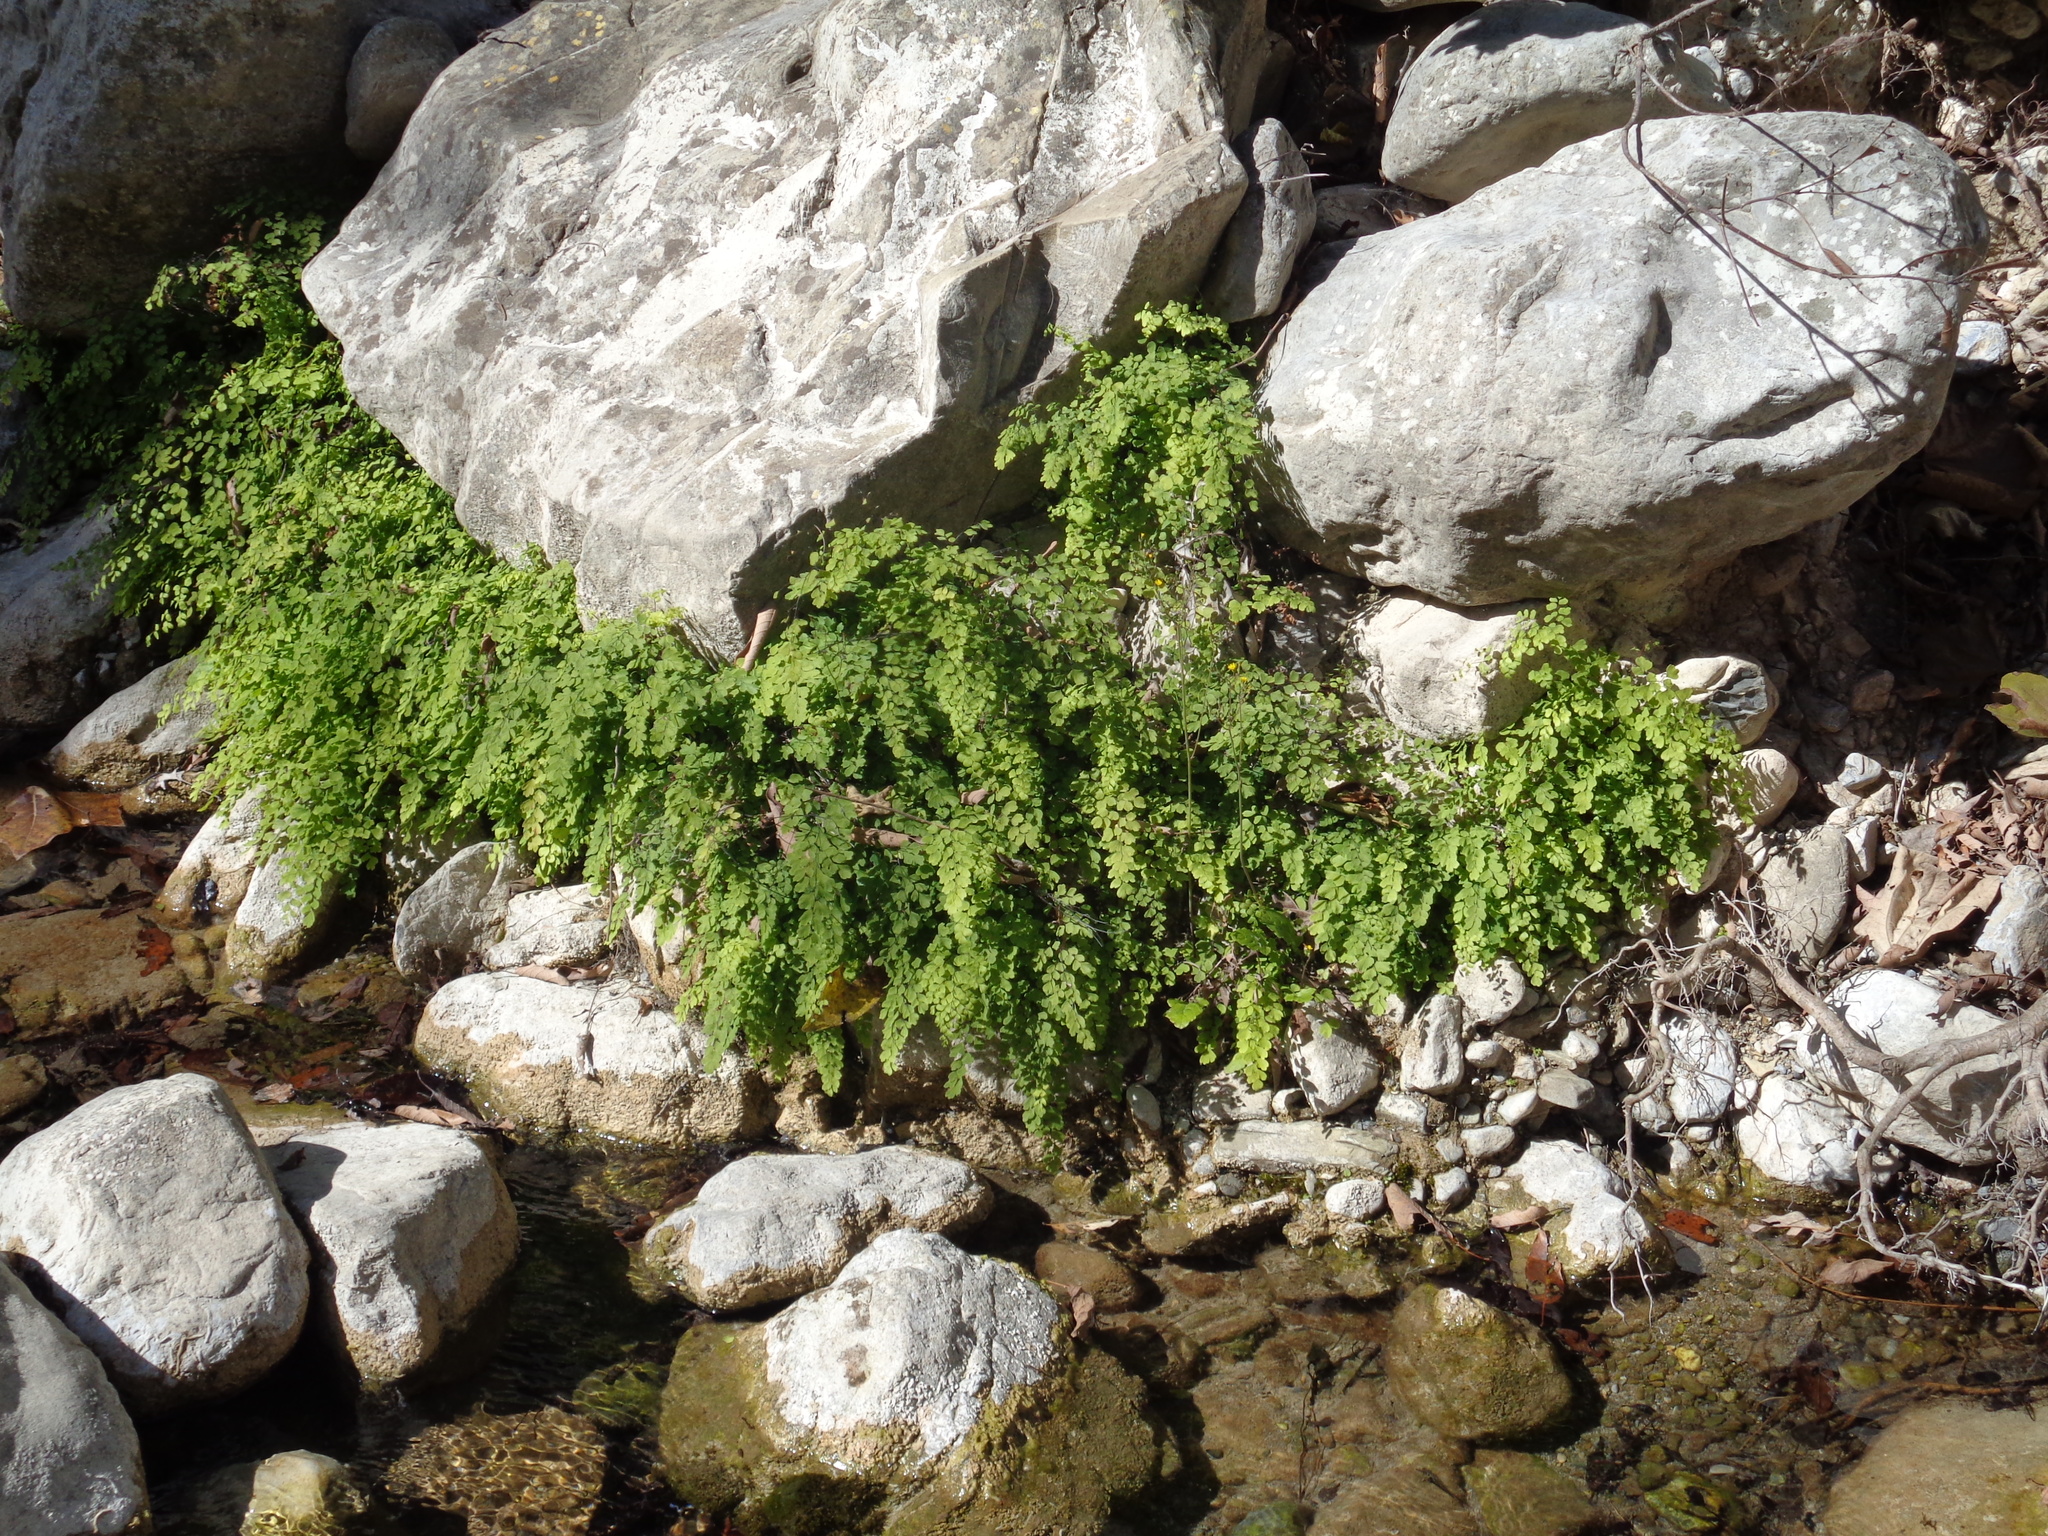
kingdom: Plantae
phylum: Tracheophyta
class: Polypodiopsida
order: Polypodiales
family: Pteridaceae
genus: Adiantum
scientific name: Adiantum capillus-veneris
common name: Maidenhair fern
